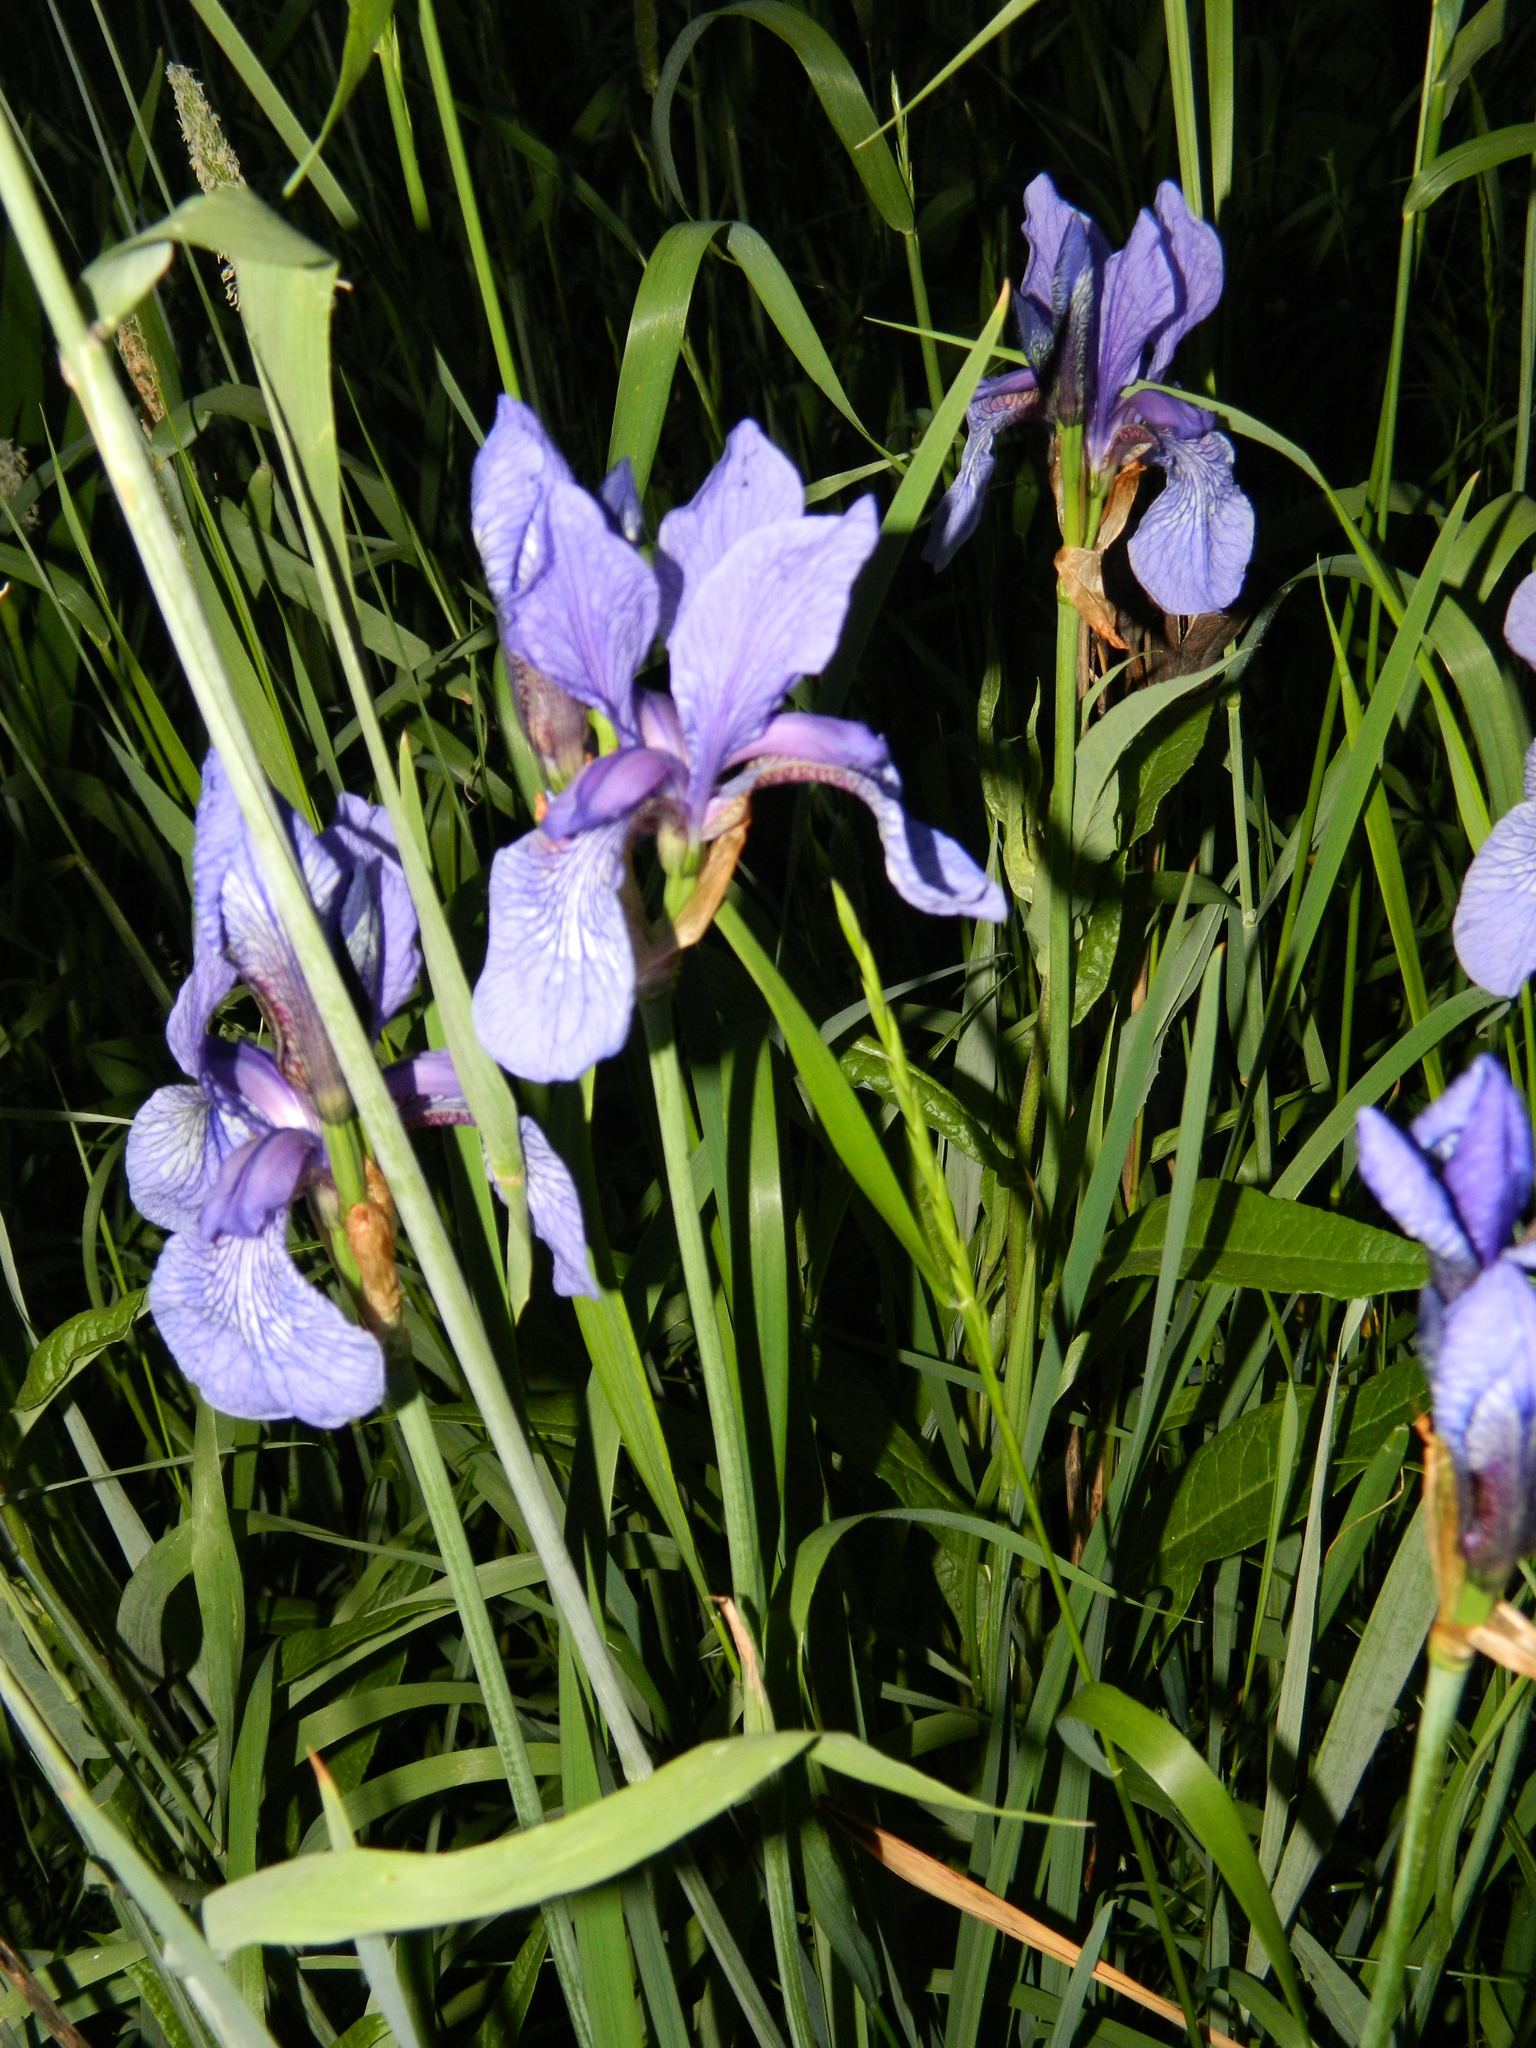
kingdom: Plantae
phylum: Tracheophyta
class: Liliopsida
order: Asparagales
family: Iridaceae
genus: Iris
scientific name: Iris sibirica
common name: Siberian iris
